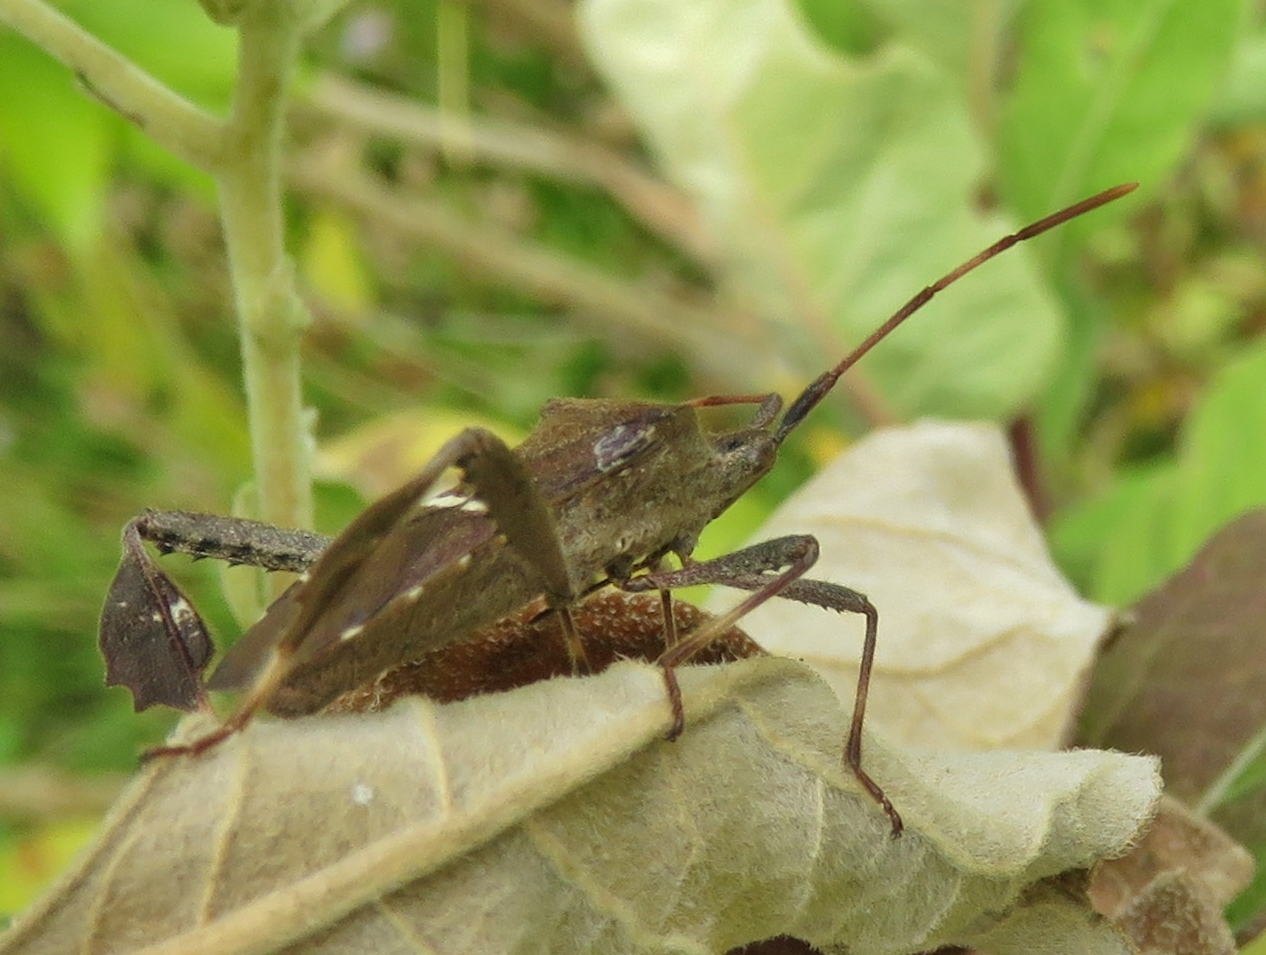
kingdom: Animalia
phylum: Arthropoda
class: Insecta
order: Hemiptera
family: Coreidae
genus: Leptoglossus
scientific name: Leptoglossus phyllopus
